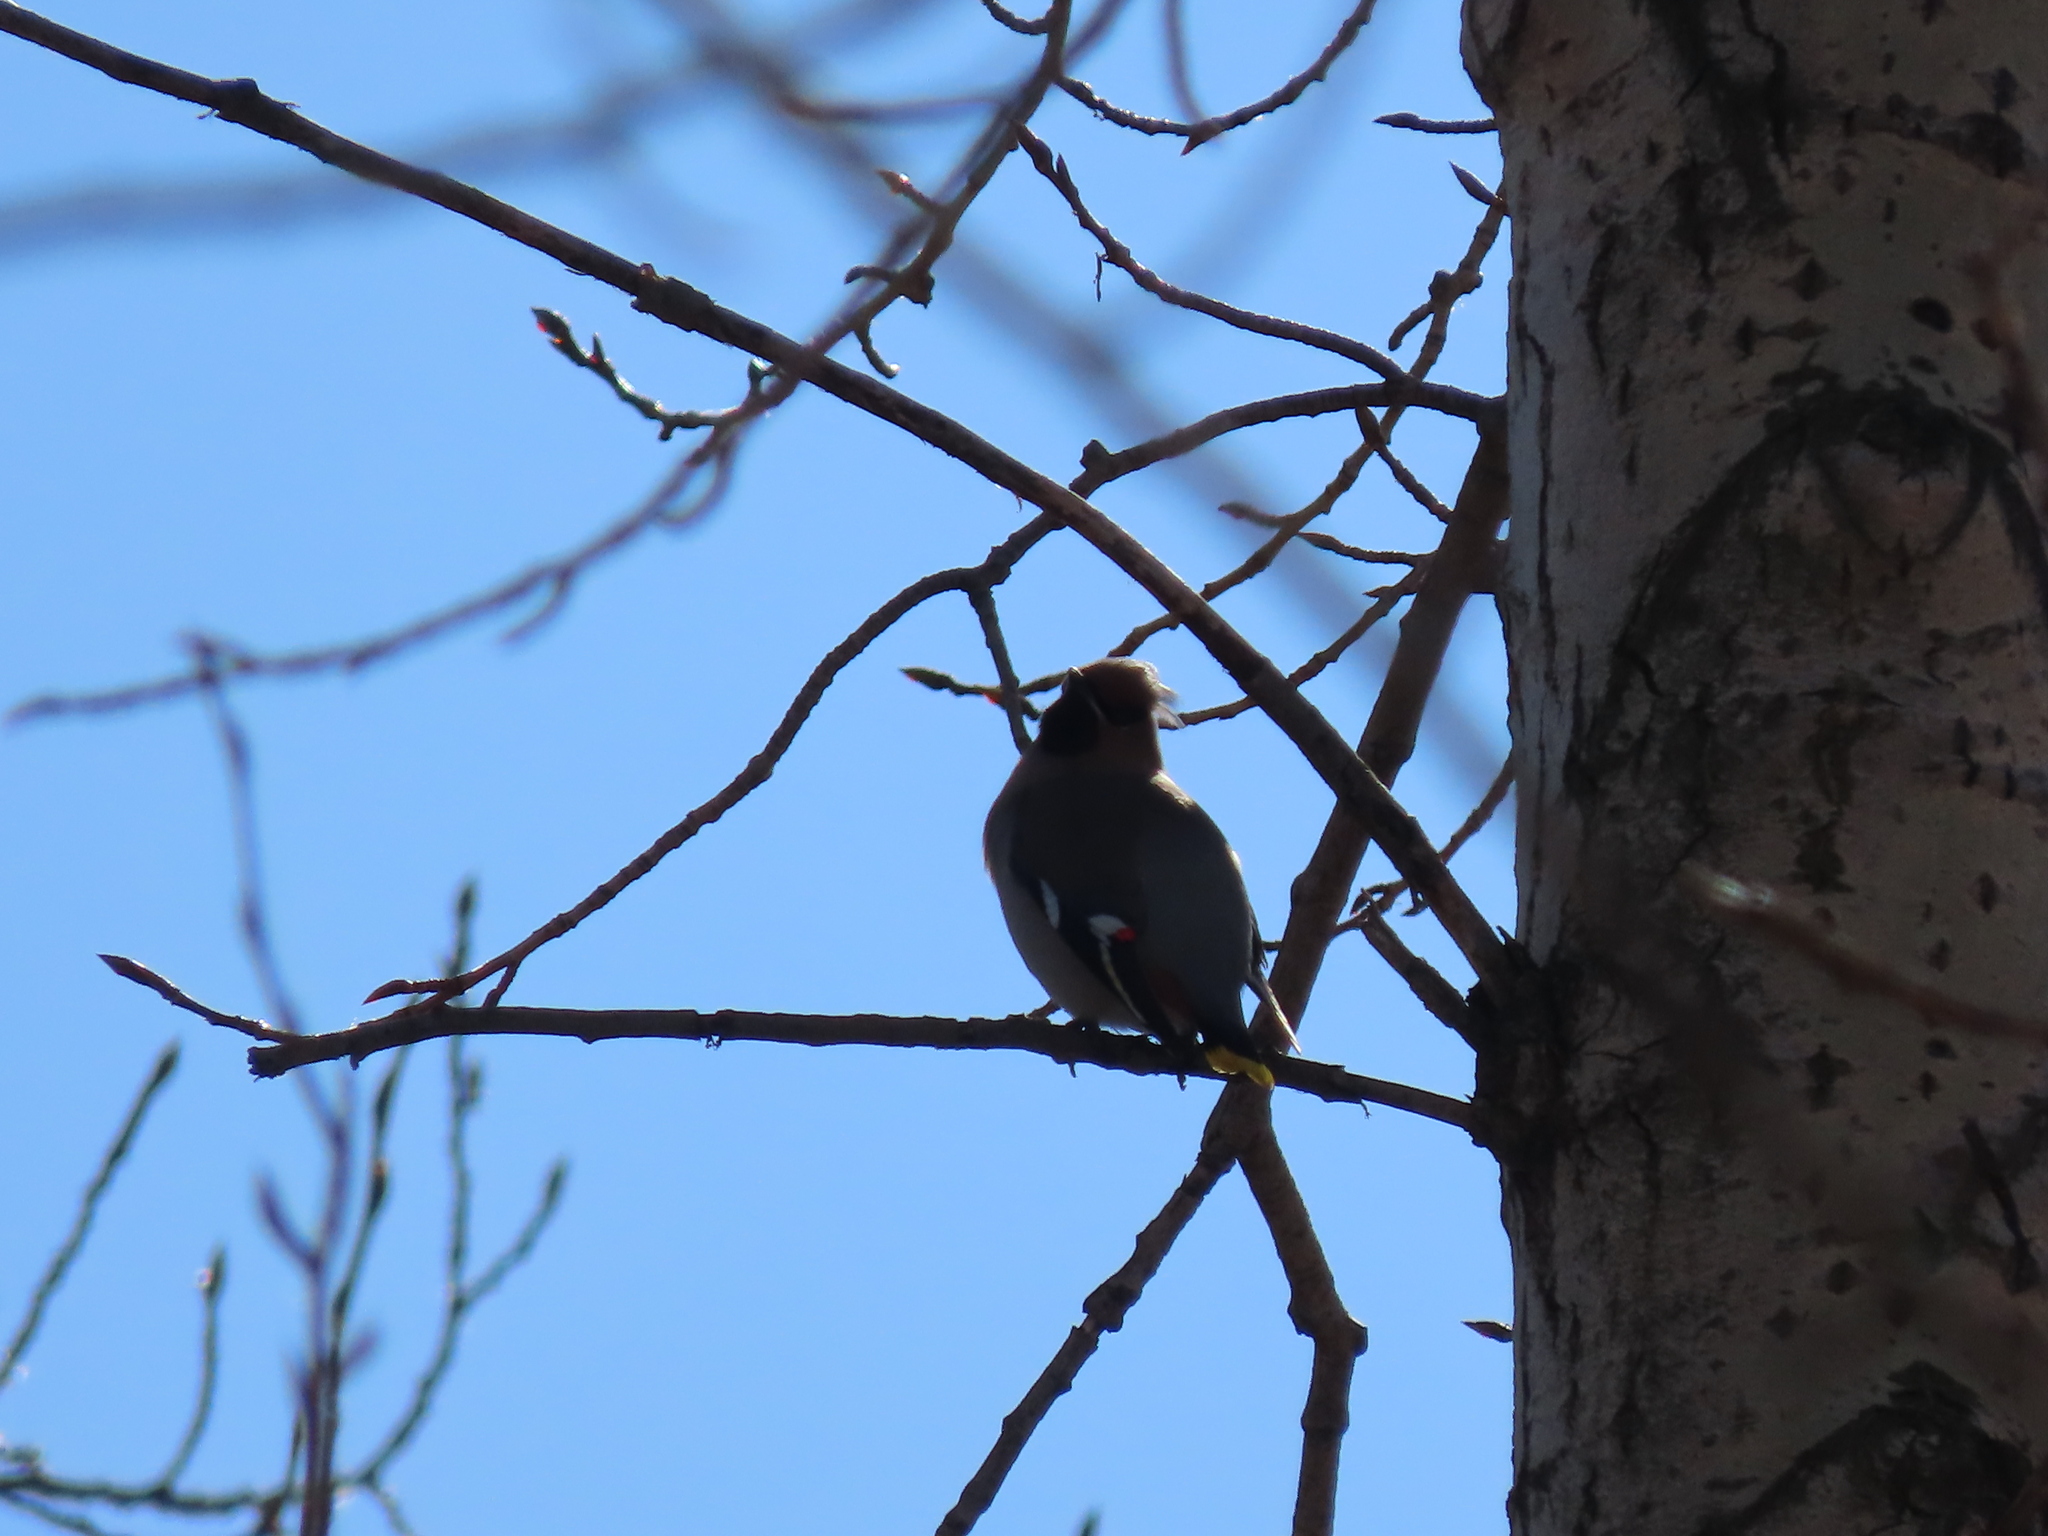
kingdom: Animalia
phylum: Chordata
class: Aves
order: Passeriformes
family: Bombycillidae
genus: Bombycilla
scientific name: Bombycilla garrulus
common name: Bohemian waxwing
